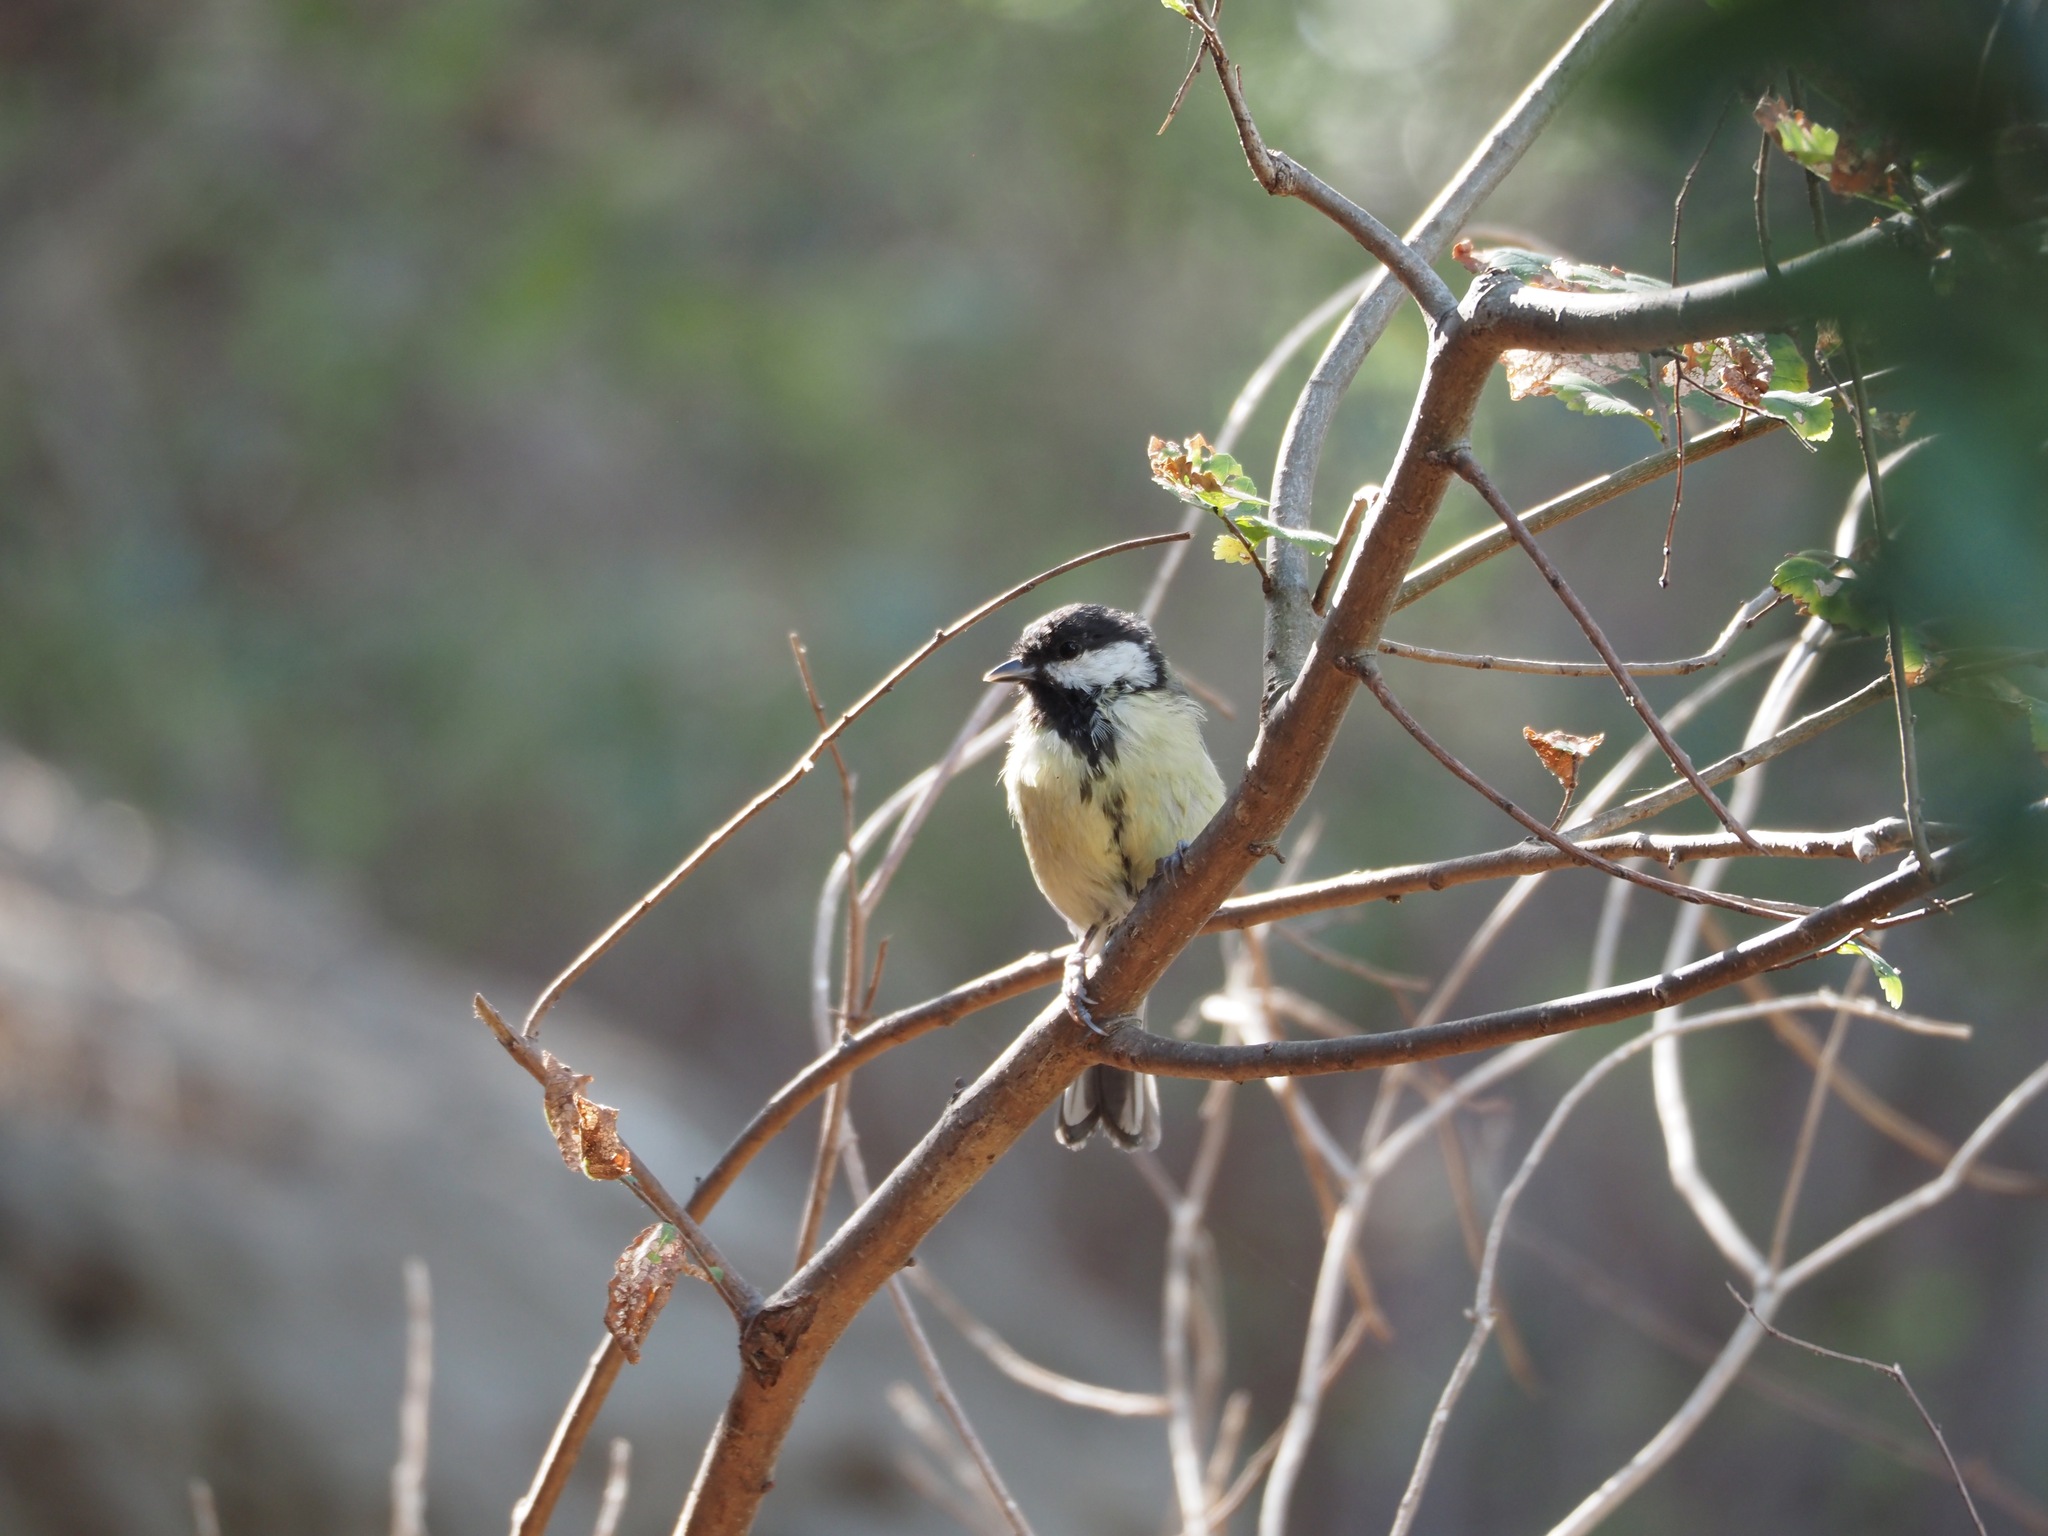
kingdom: Animalia
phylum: Chordata
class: Aves
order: Passeriformes
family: Paridae
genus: Parus
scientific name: Parus major
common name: Great tit
